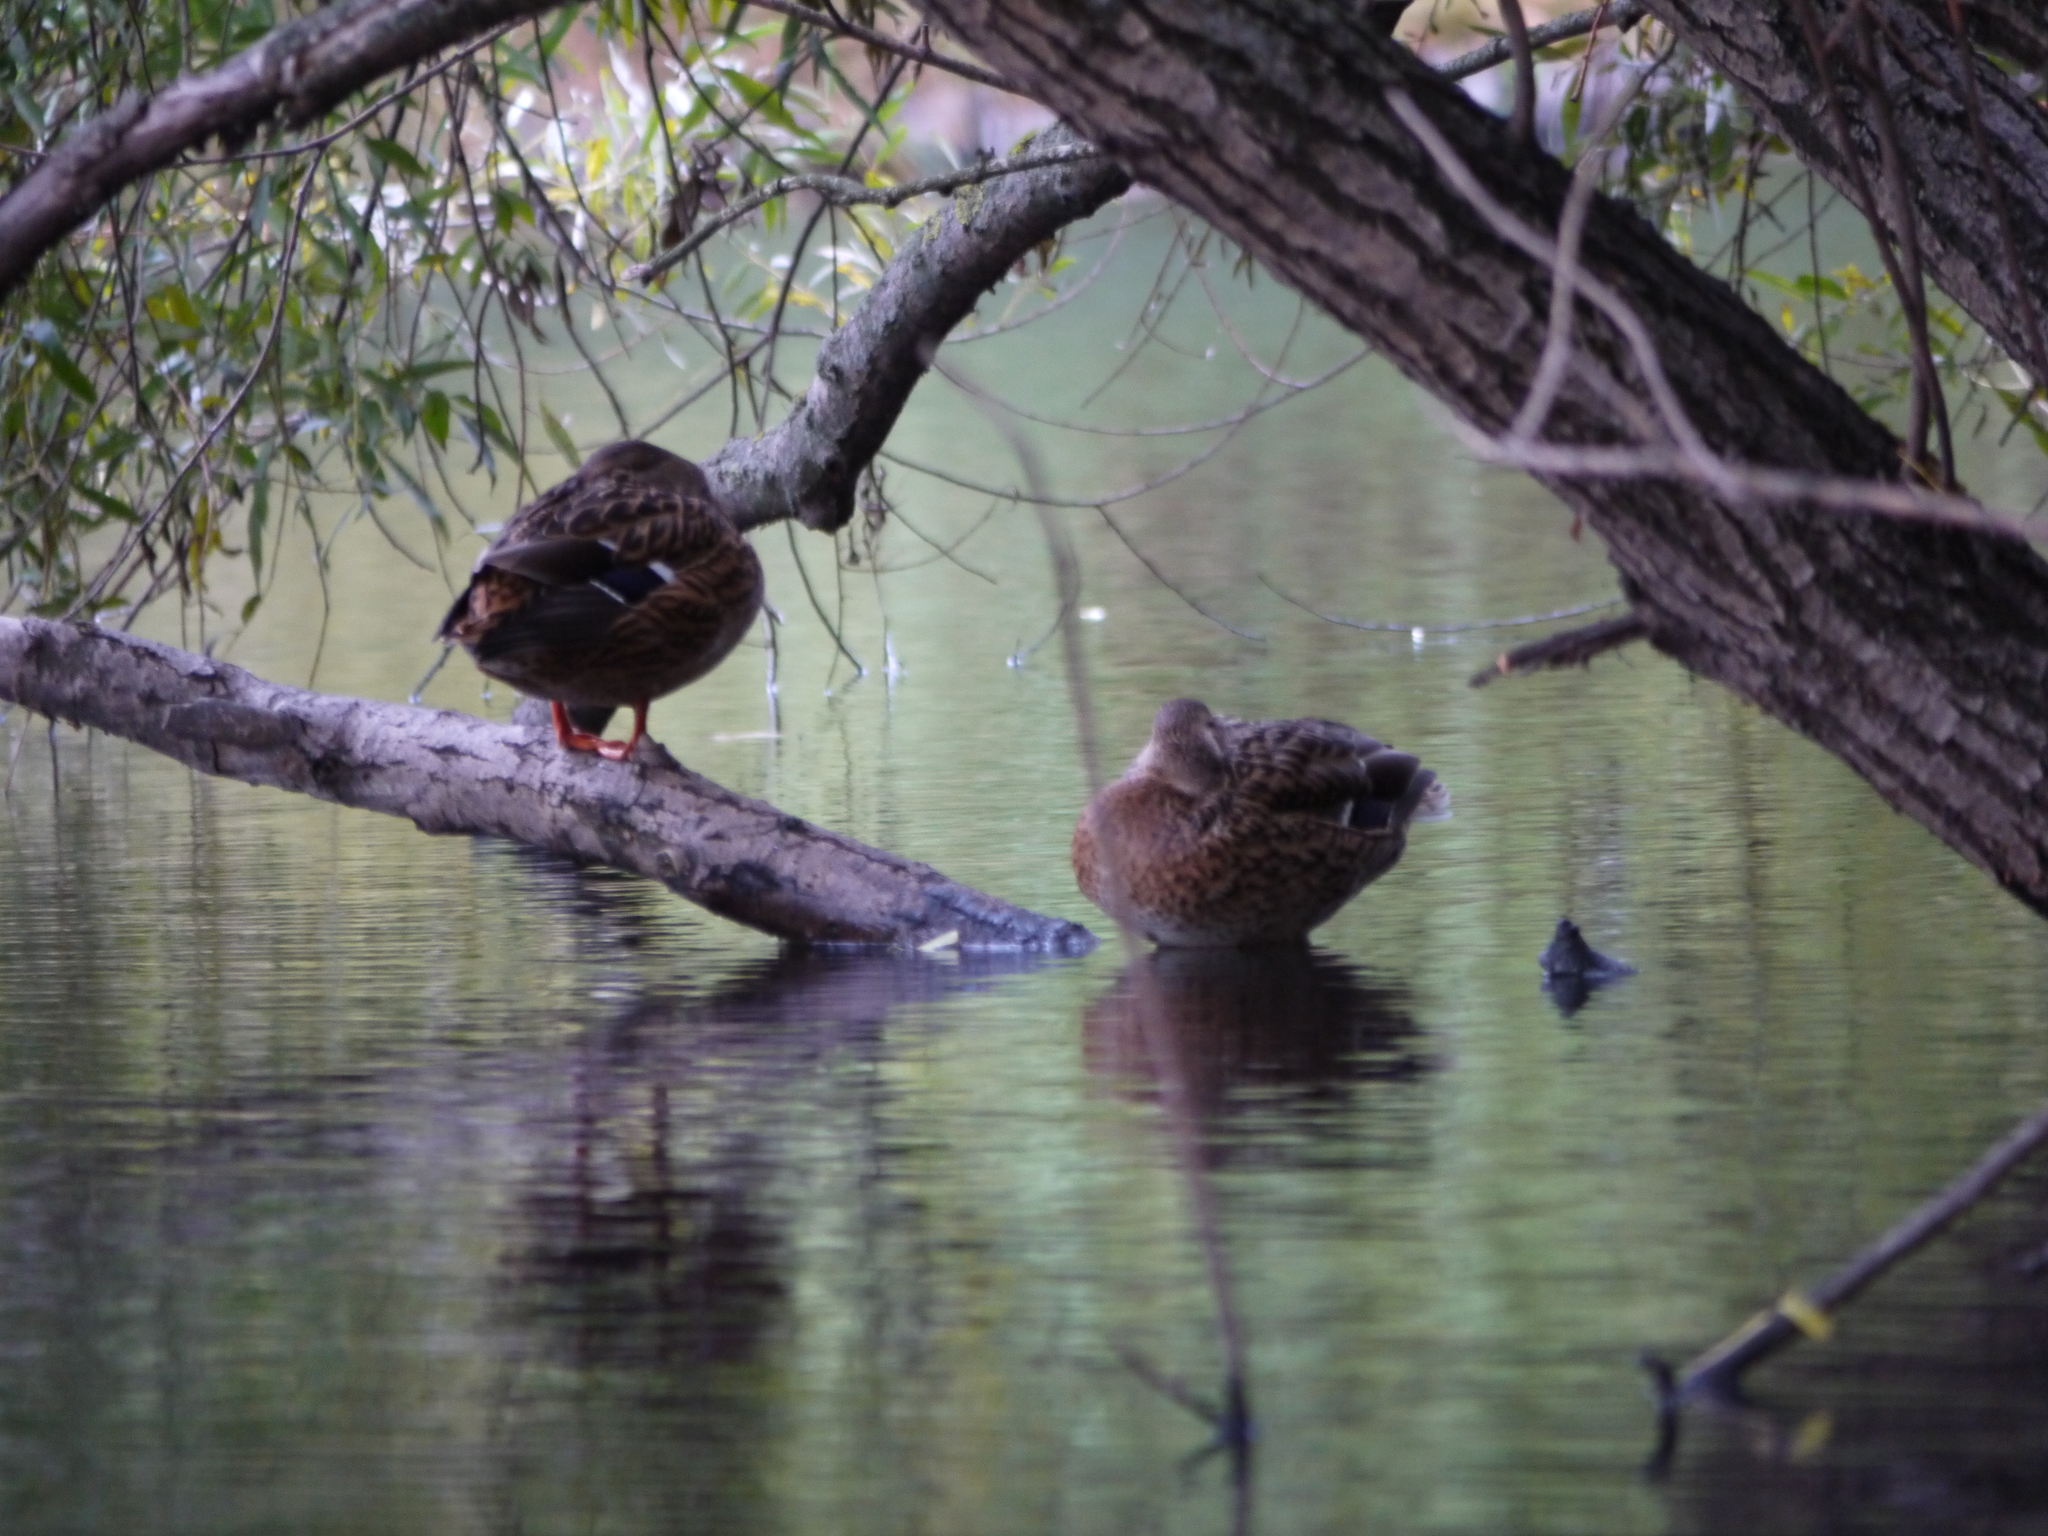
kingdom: Animalia
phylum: Chordata
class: Aves
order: Anseriformes
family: Anatidae
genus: Anas
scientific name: Anas platyrhynchos
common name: Mallard
